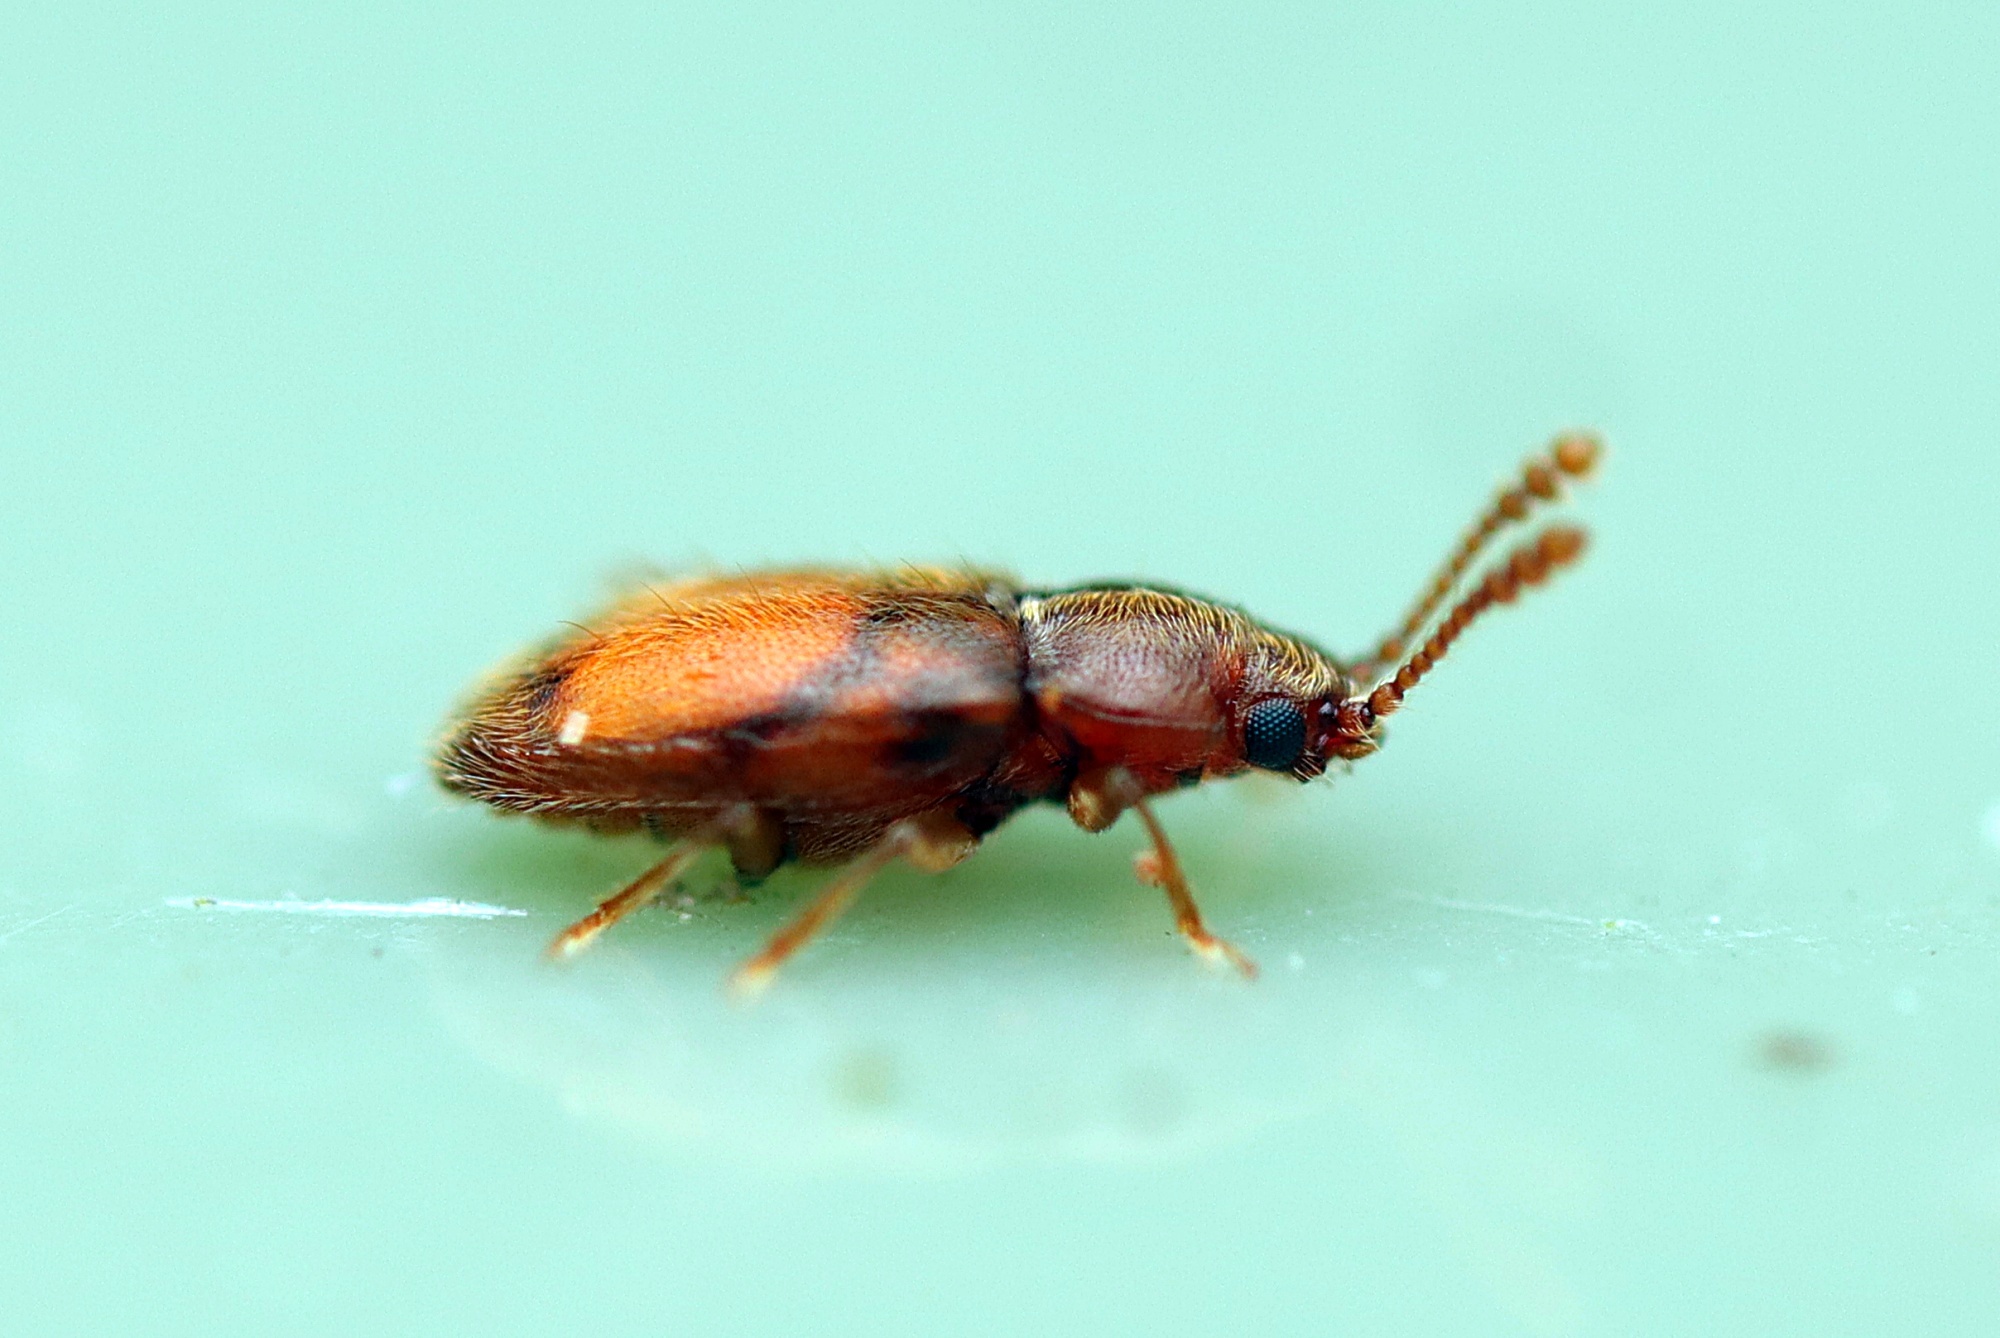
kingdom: Animalia
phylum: Arthropoda
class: Insecta
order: Coleoptera
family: Cryptophagidae
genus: Notocryptus
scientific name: Notocryptus
